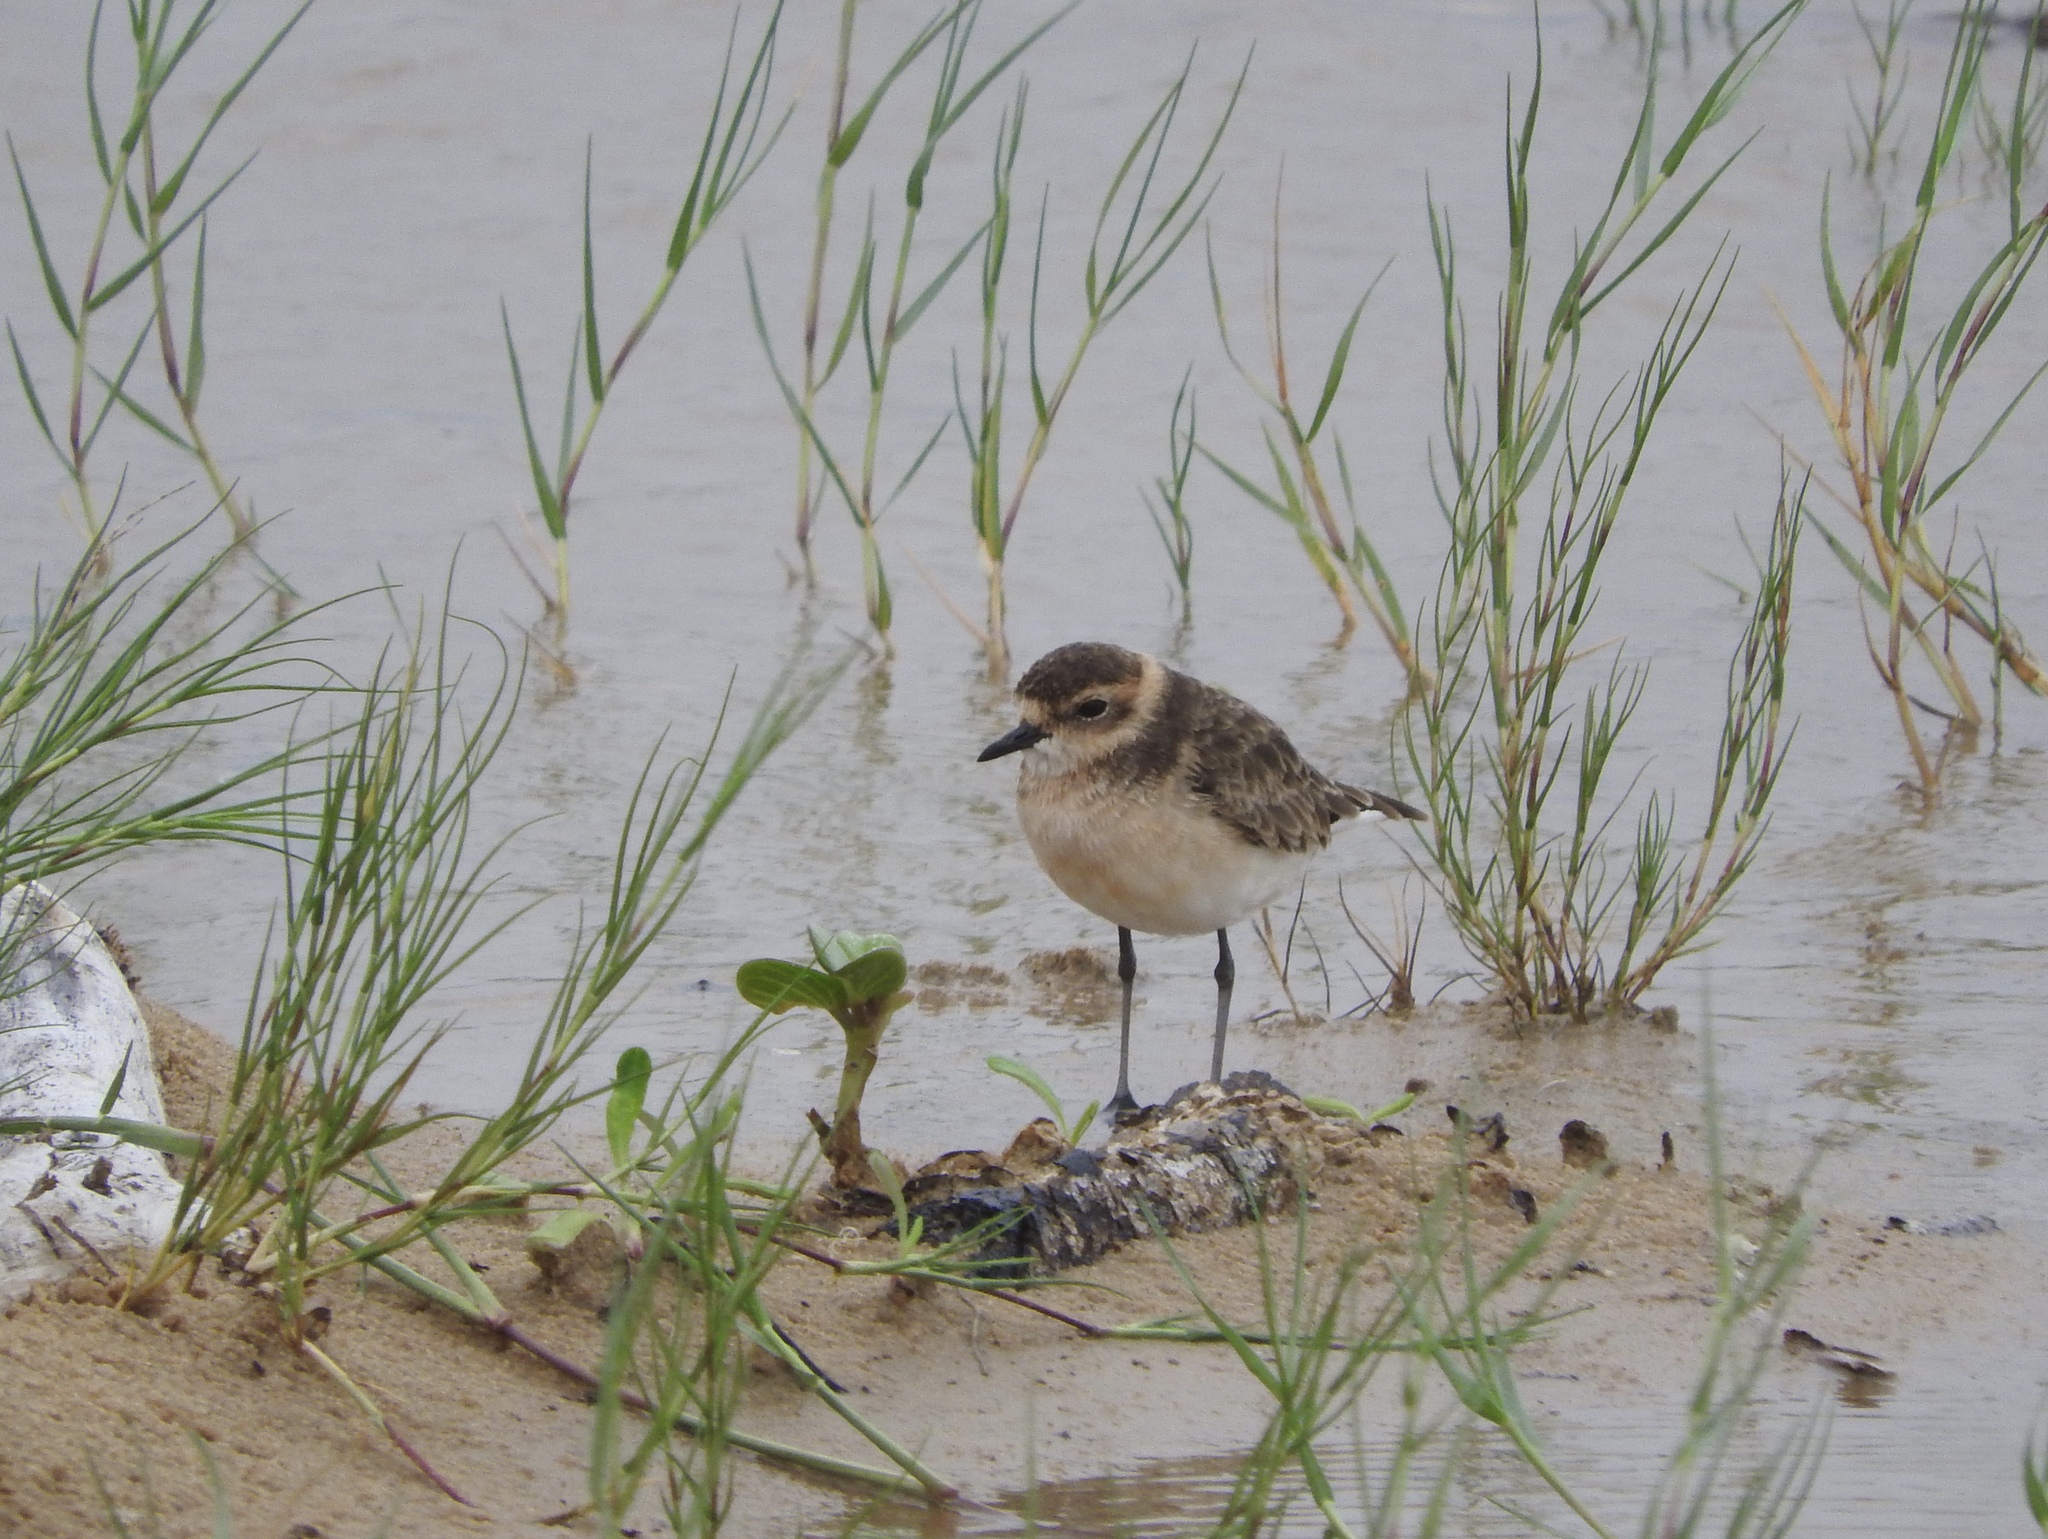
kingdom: Animalia
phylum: Chordata
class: Aves
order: Charadriiformes
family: Charadriidae
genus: Anarhynchus
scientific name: Anarhynchus
